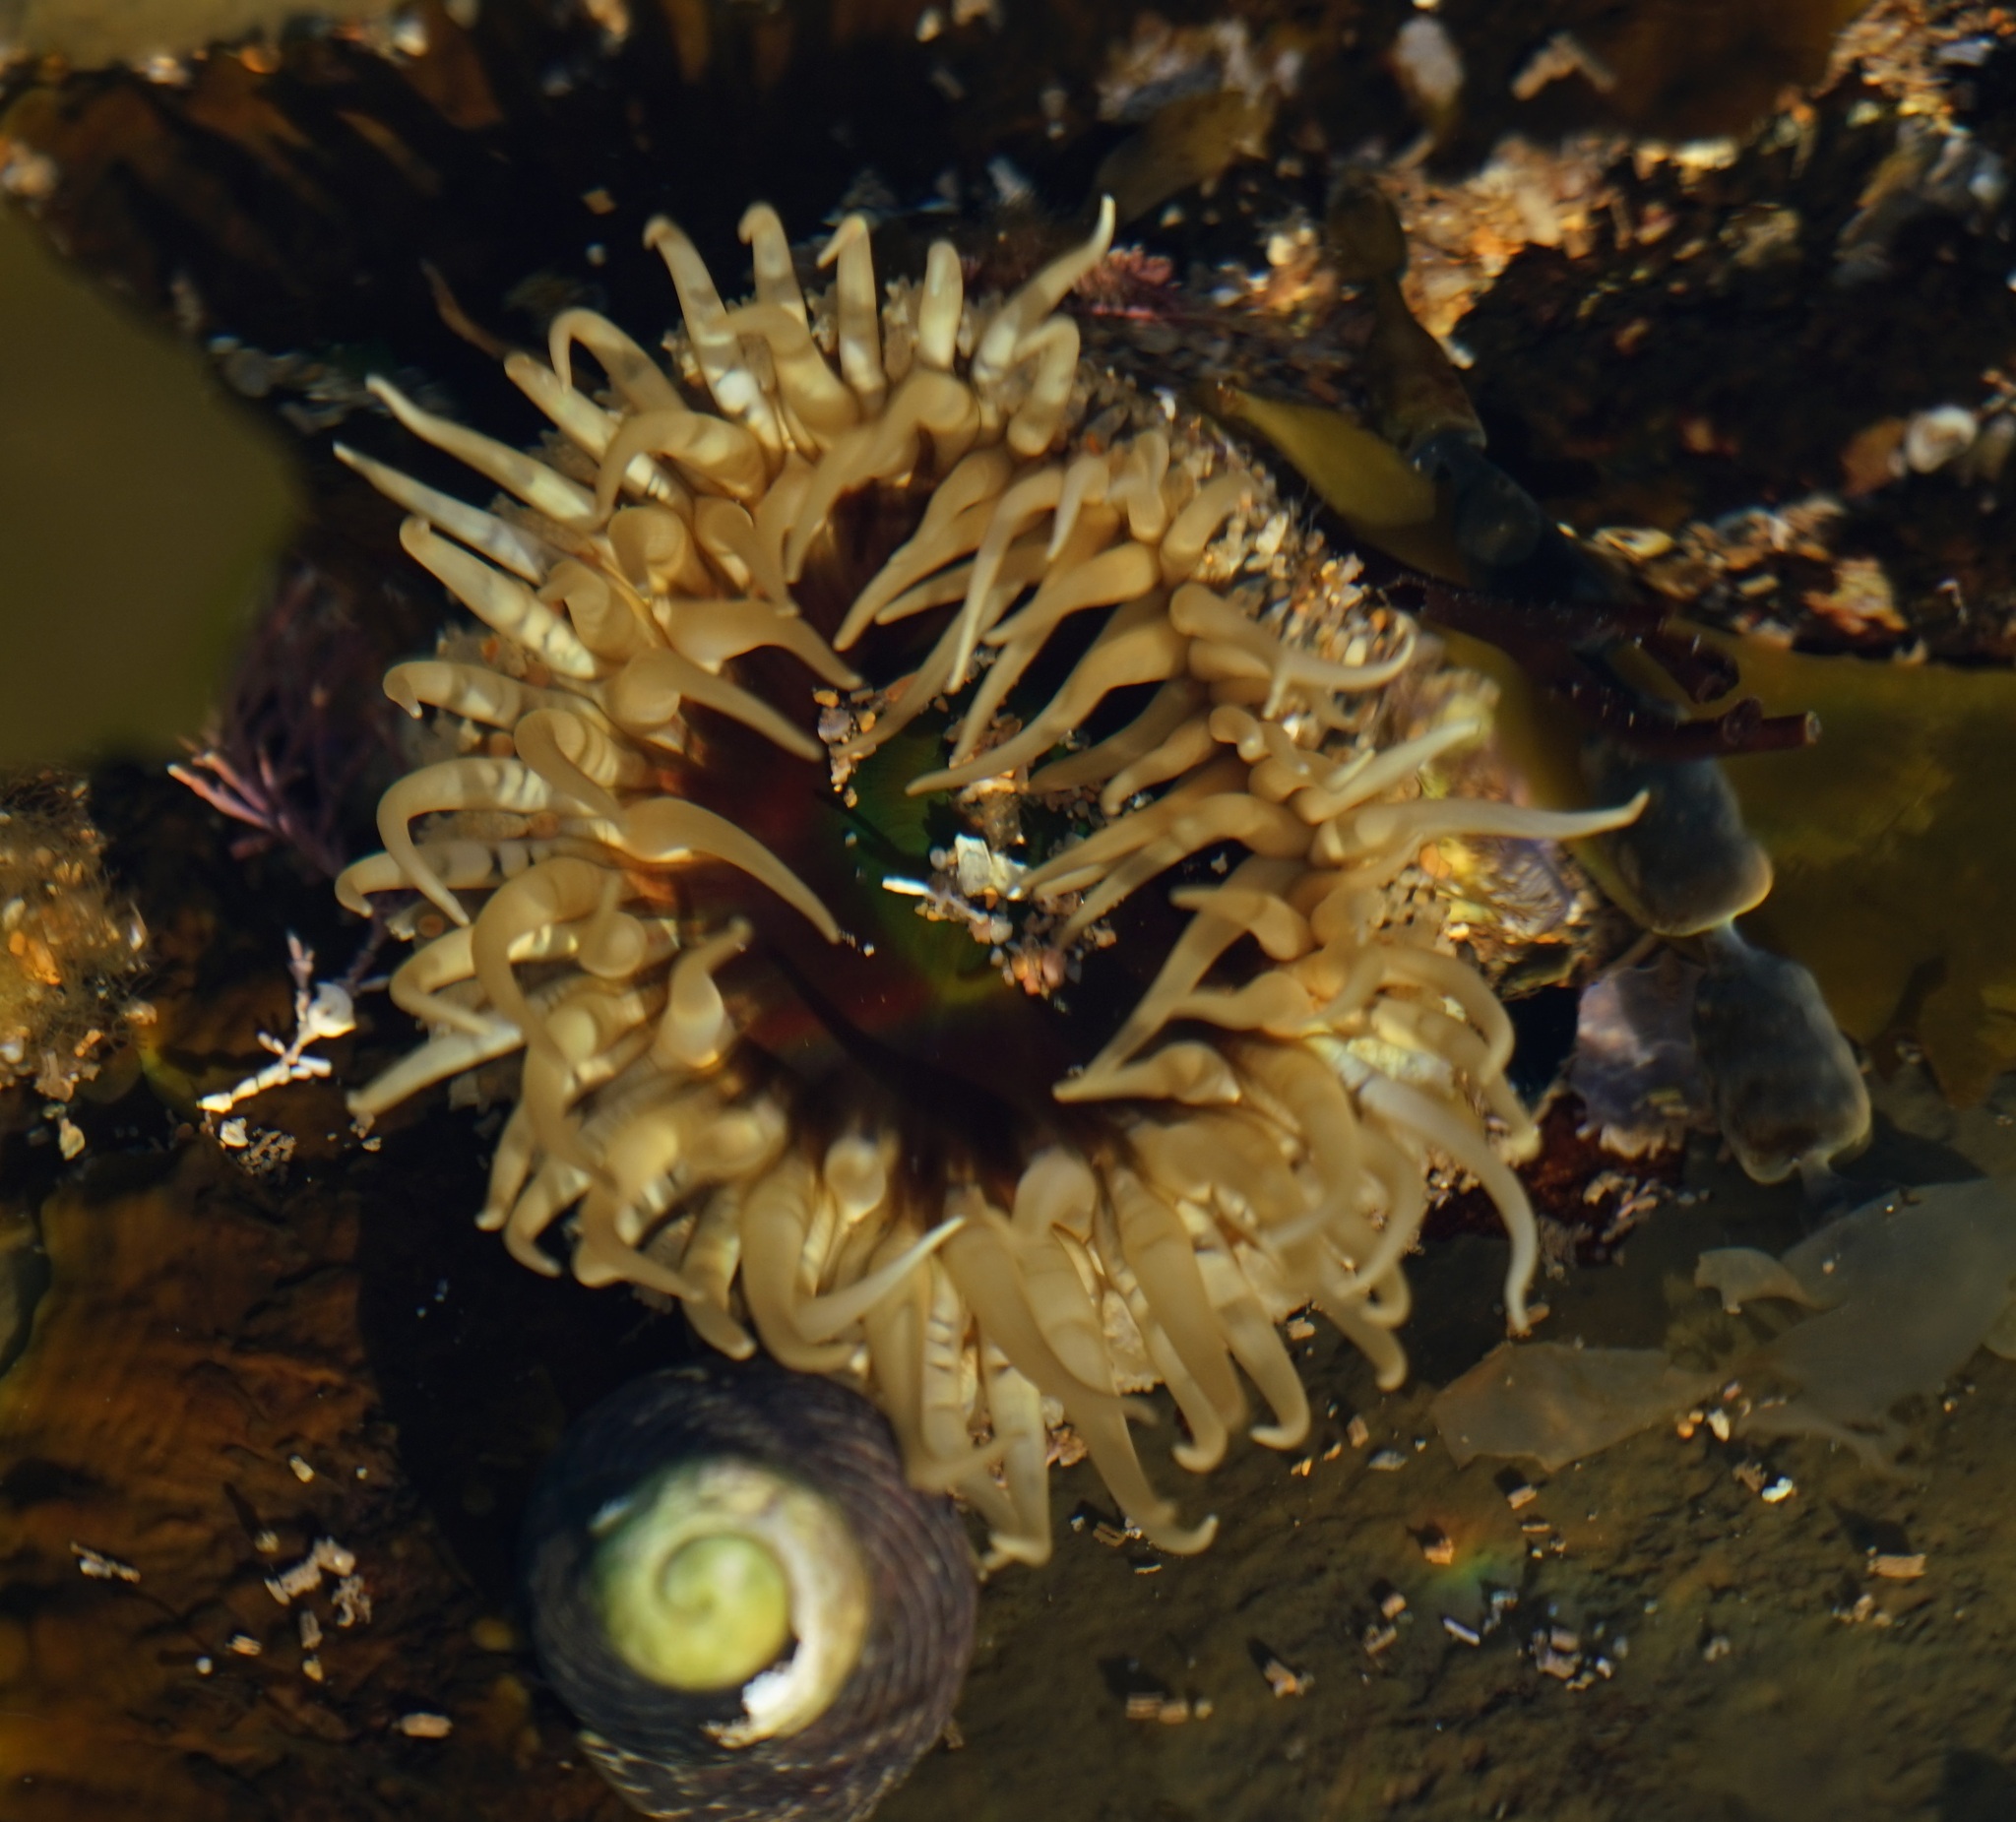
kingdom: Animalia
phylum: Cnidaria
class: Anthozoa
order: Actiniaria
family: Actiniidae
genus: Oulactis
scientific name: Oulactis muscosa
